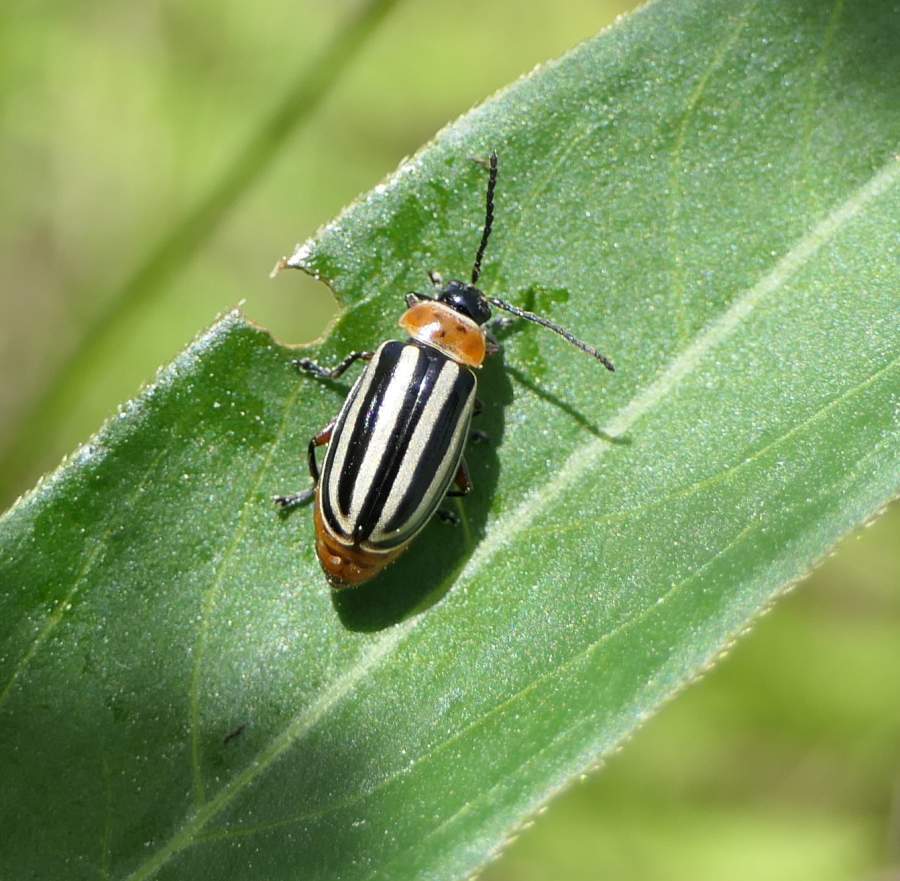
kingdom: Animalia
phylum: Arthropoda
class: Insecta
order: Coleoptera
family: Chrysomelidae
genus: Disonycha
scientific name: Disonycha procera
